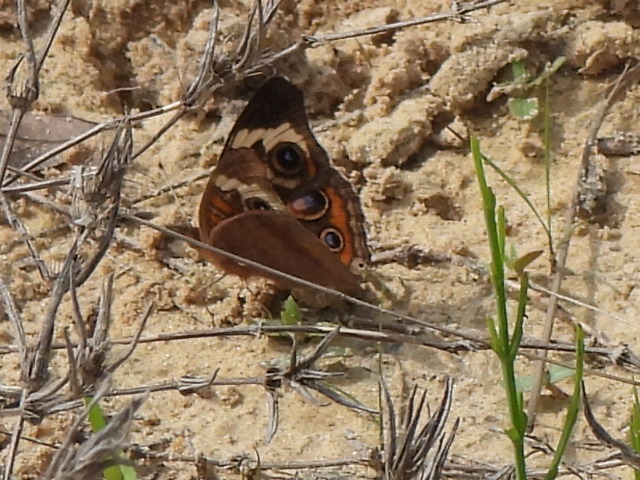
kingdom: Animalia
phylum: Arthropoda
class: Insecta
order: Lepidoptera
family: Nymphalidae
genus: Junonia
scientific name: Junonia coenia
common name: Common buckeye
